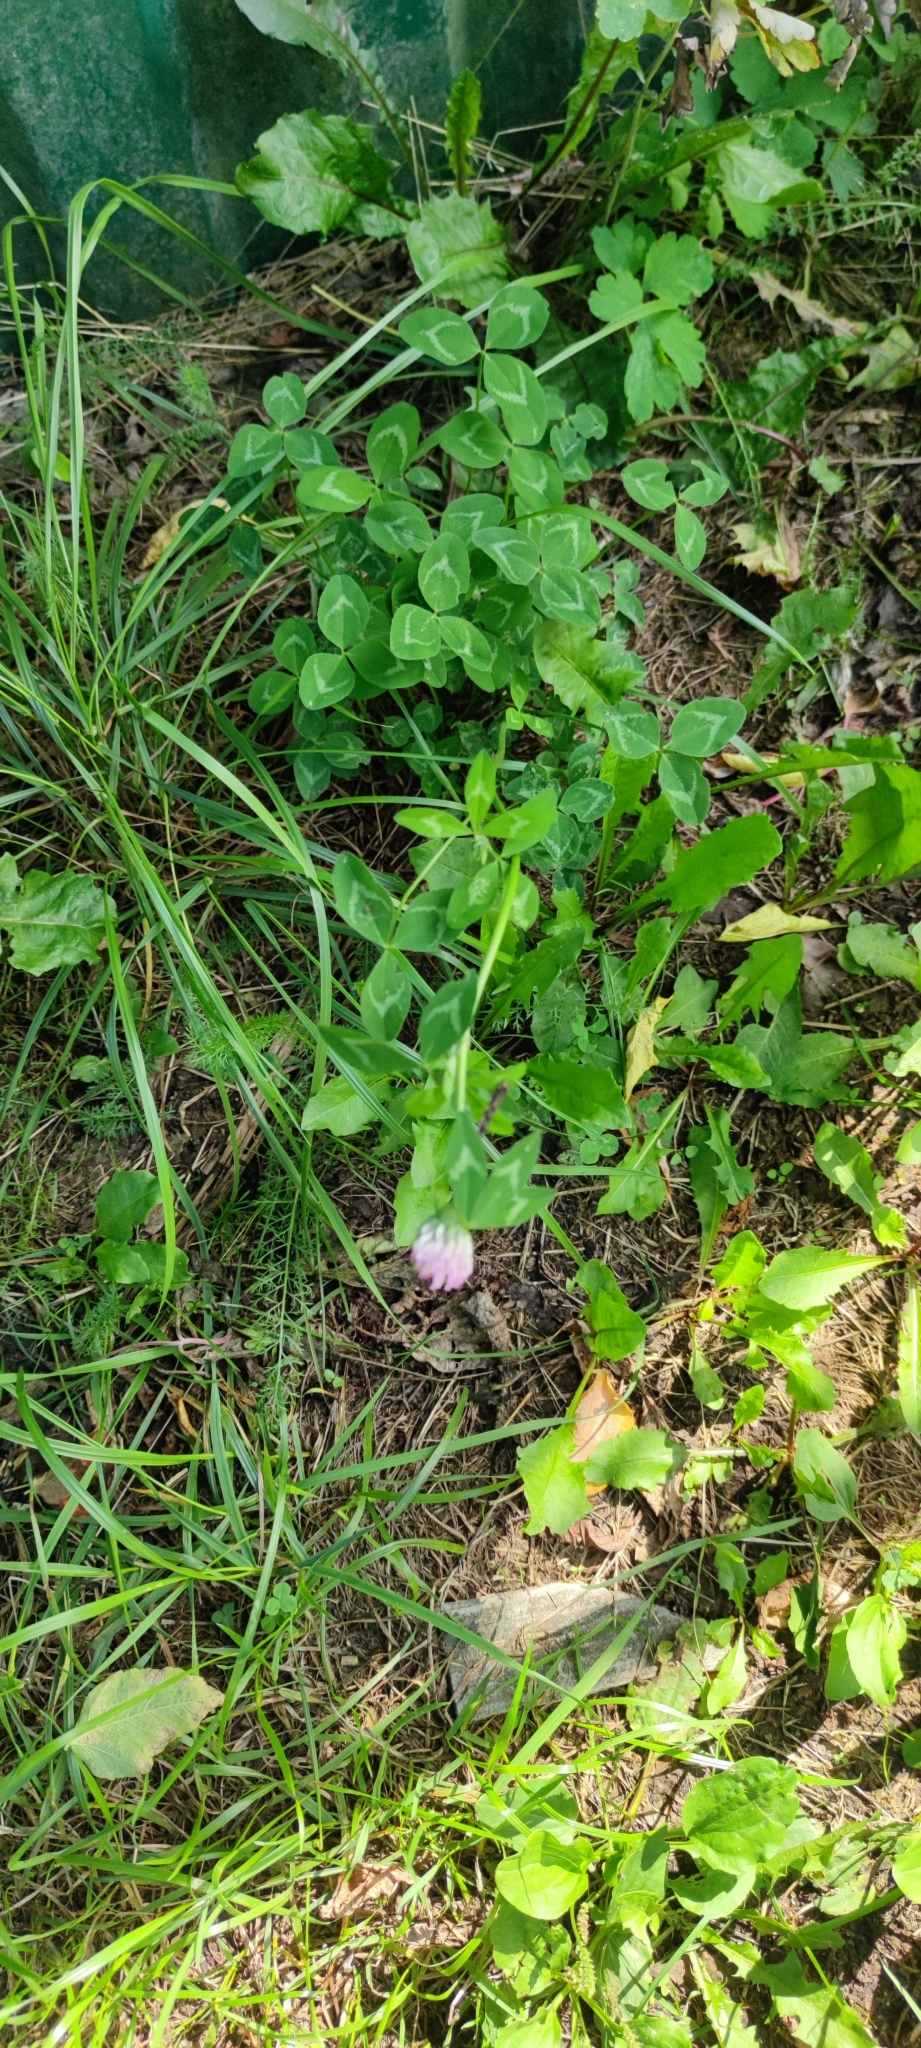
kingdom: Plantae
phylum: Tracheophyta
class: Magnoliopsida
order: Fabales
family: Fabaceae
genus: Trifolium
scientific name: Trifolium pratense
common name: Red clover
